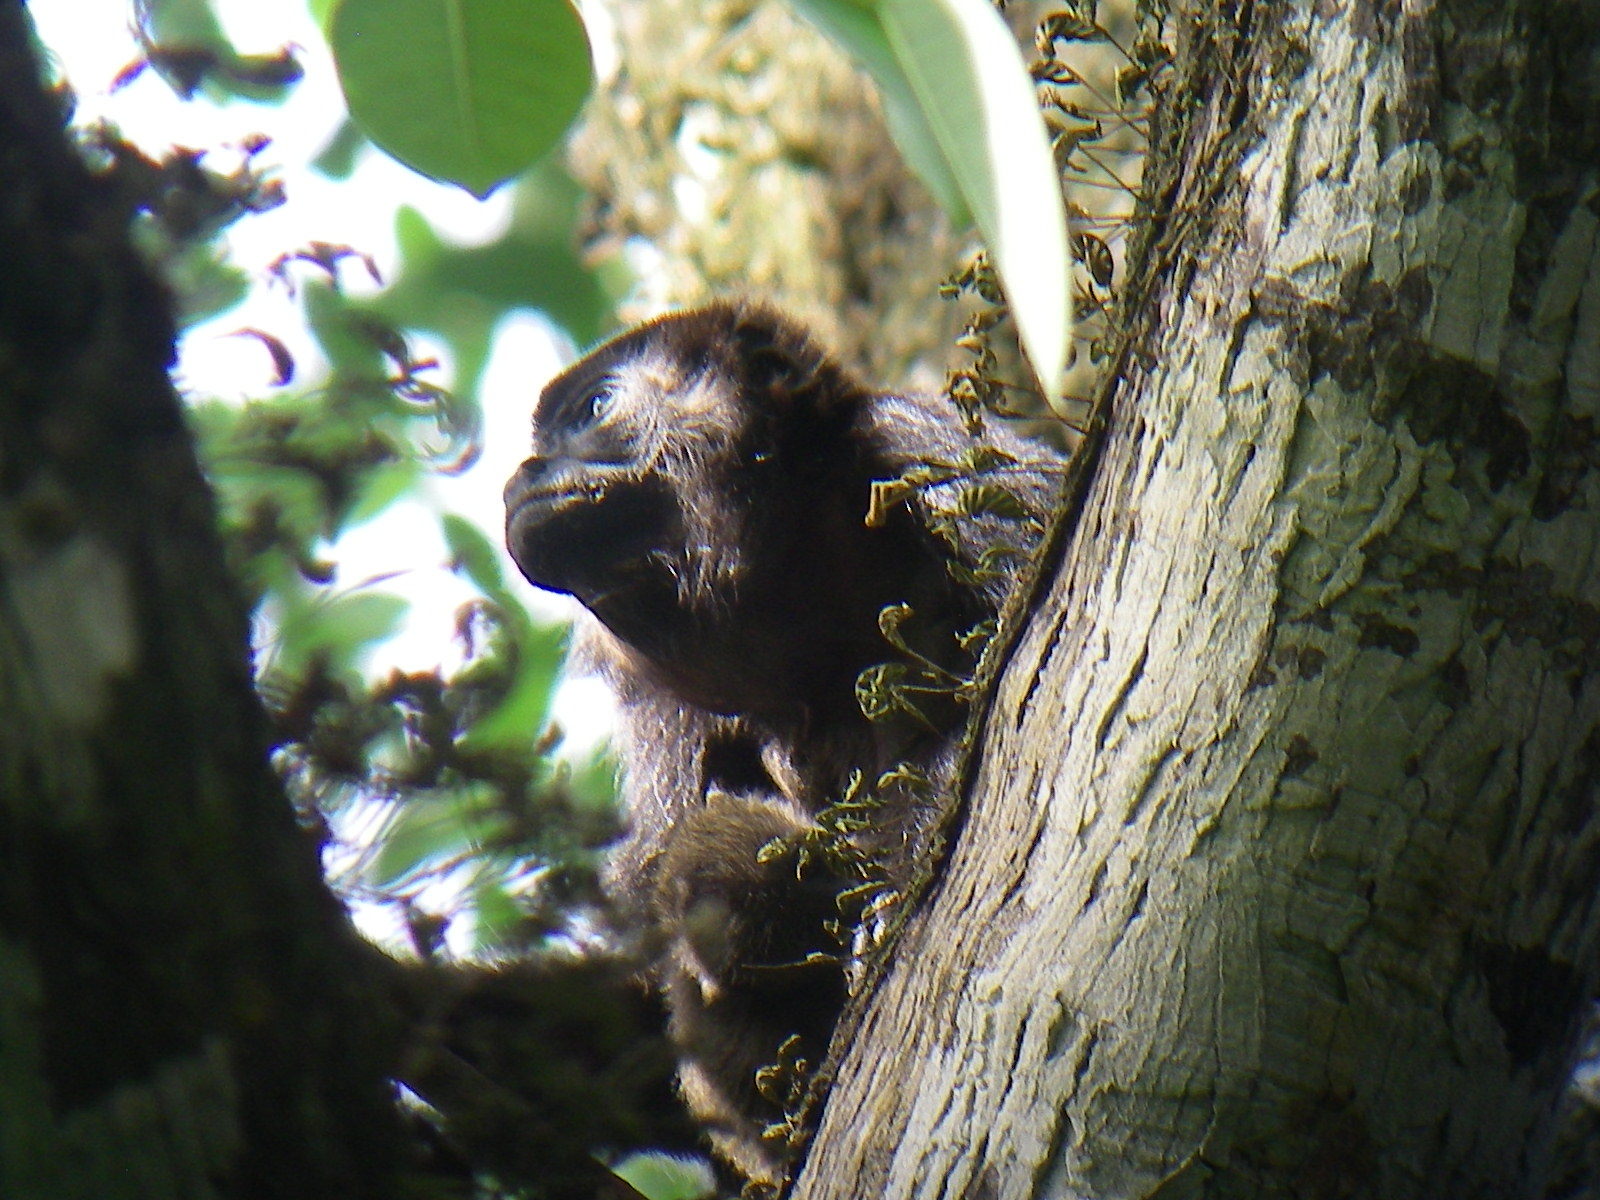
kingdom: Animalia
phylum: Chordata
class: Mammalia
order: Primates
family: Atelidae
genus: Alouatta
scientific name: Alouatta palliata
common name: Mantled howler
